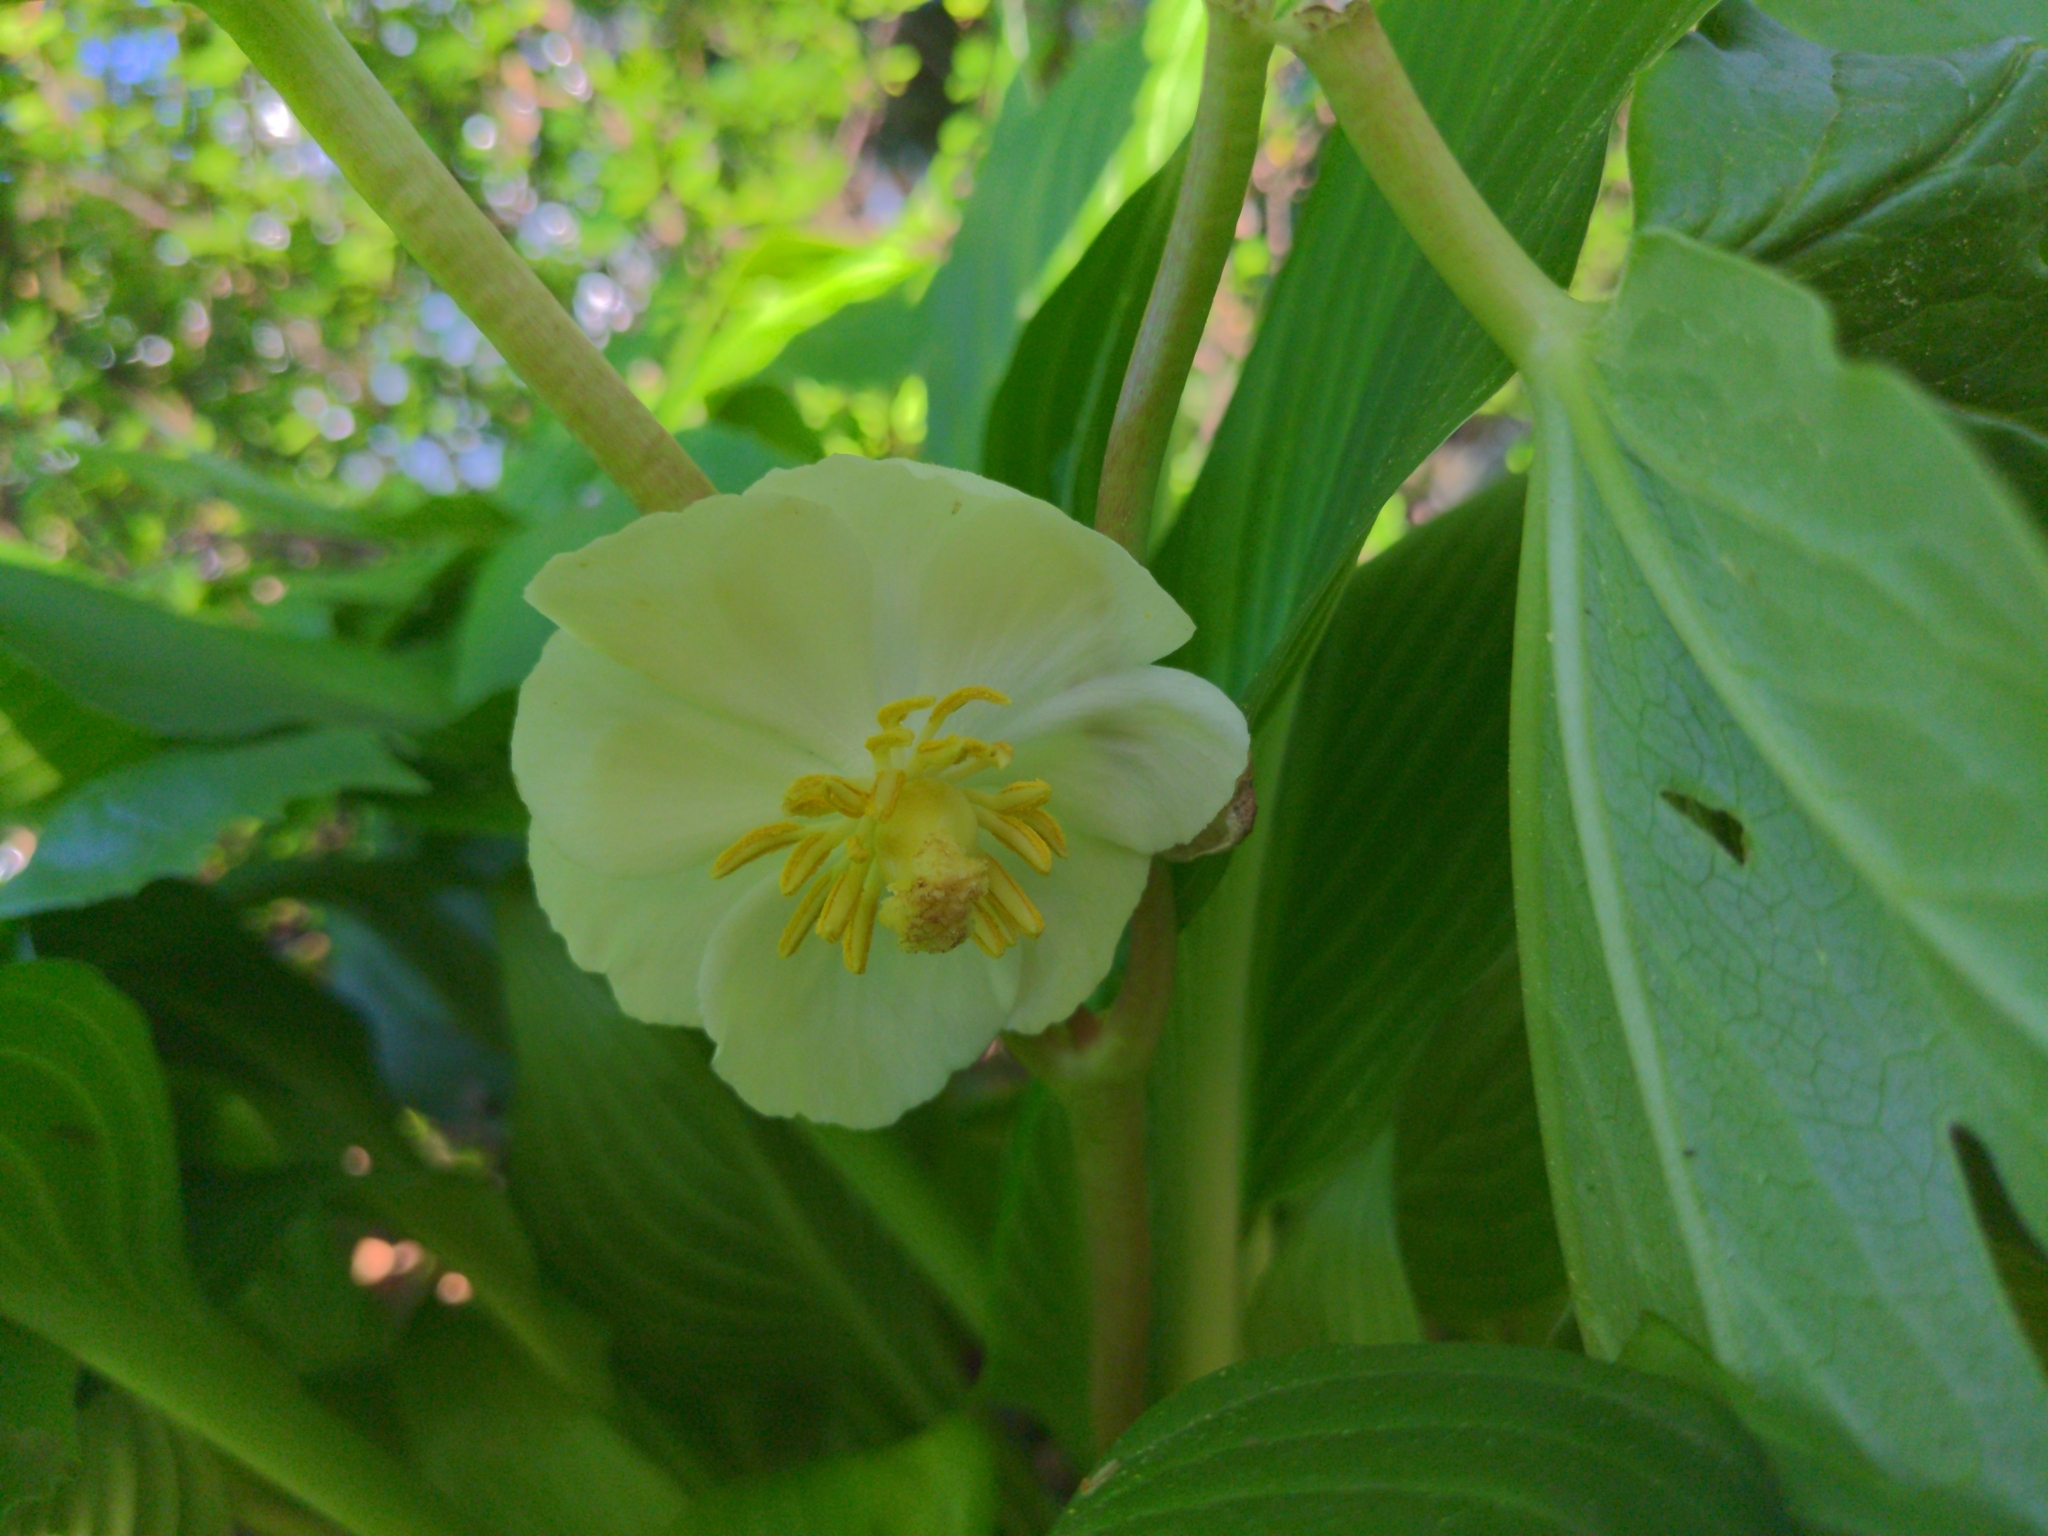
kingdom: Plantae
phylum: Tracheophyta
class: Magnoliopsida
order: Ranunculales
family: Berberidaceae
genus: Podophyllum
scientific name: Podophyllum peltatum
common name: Wild mandrake
